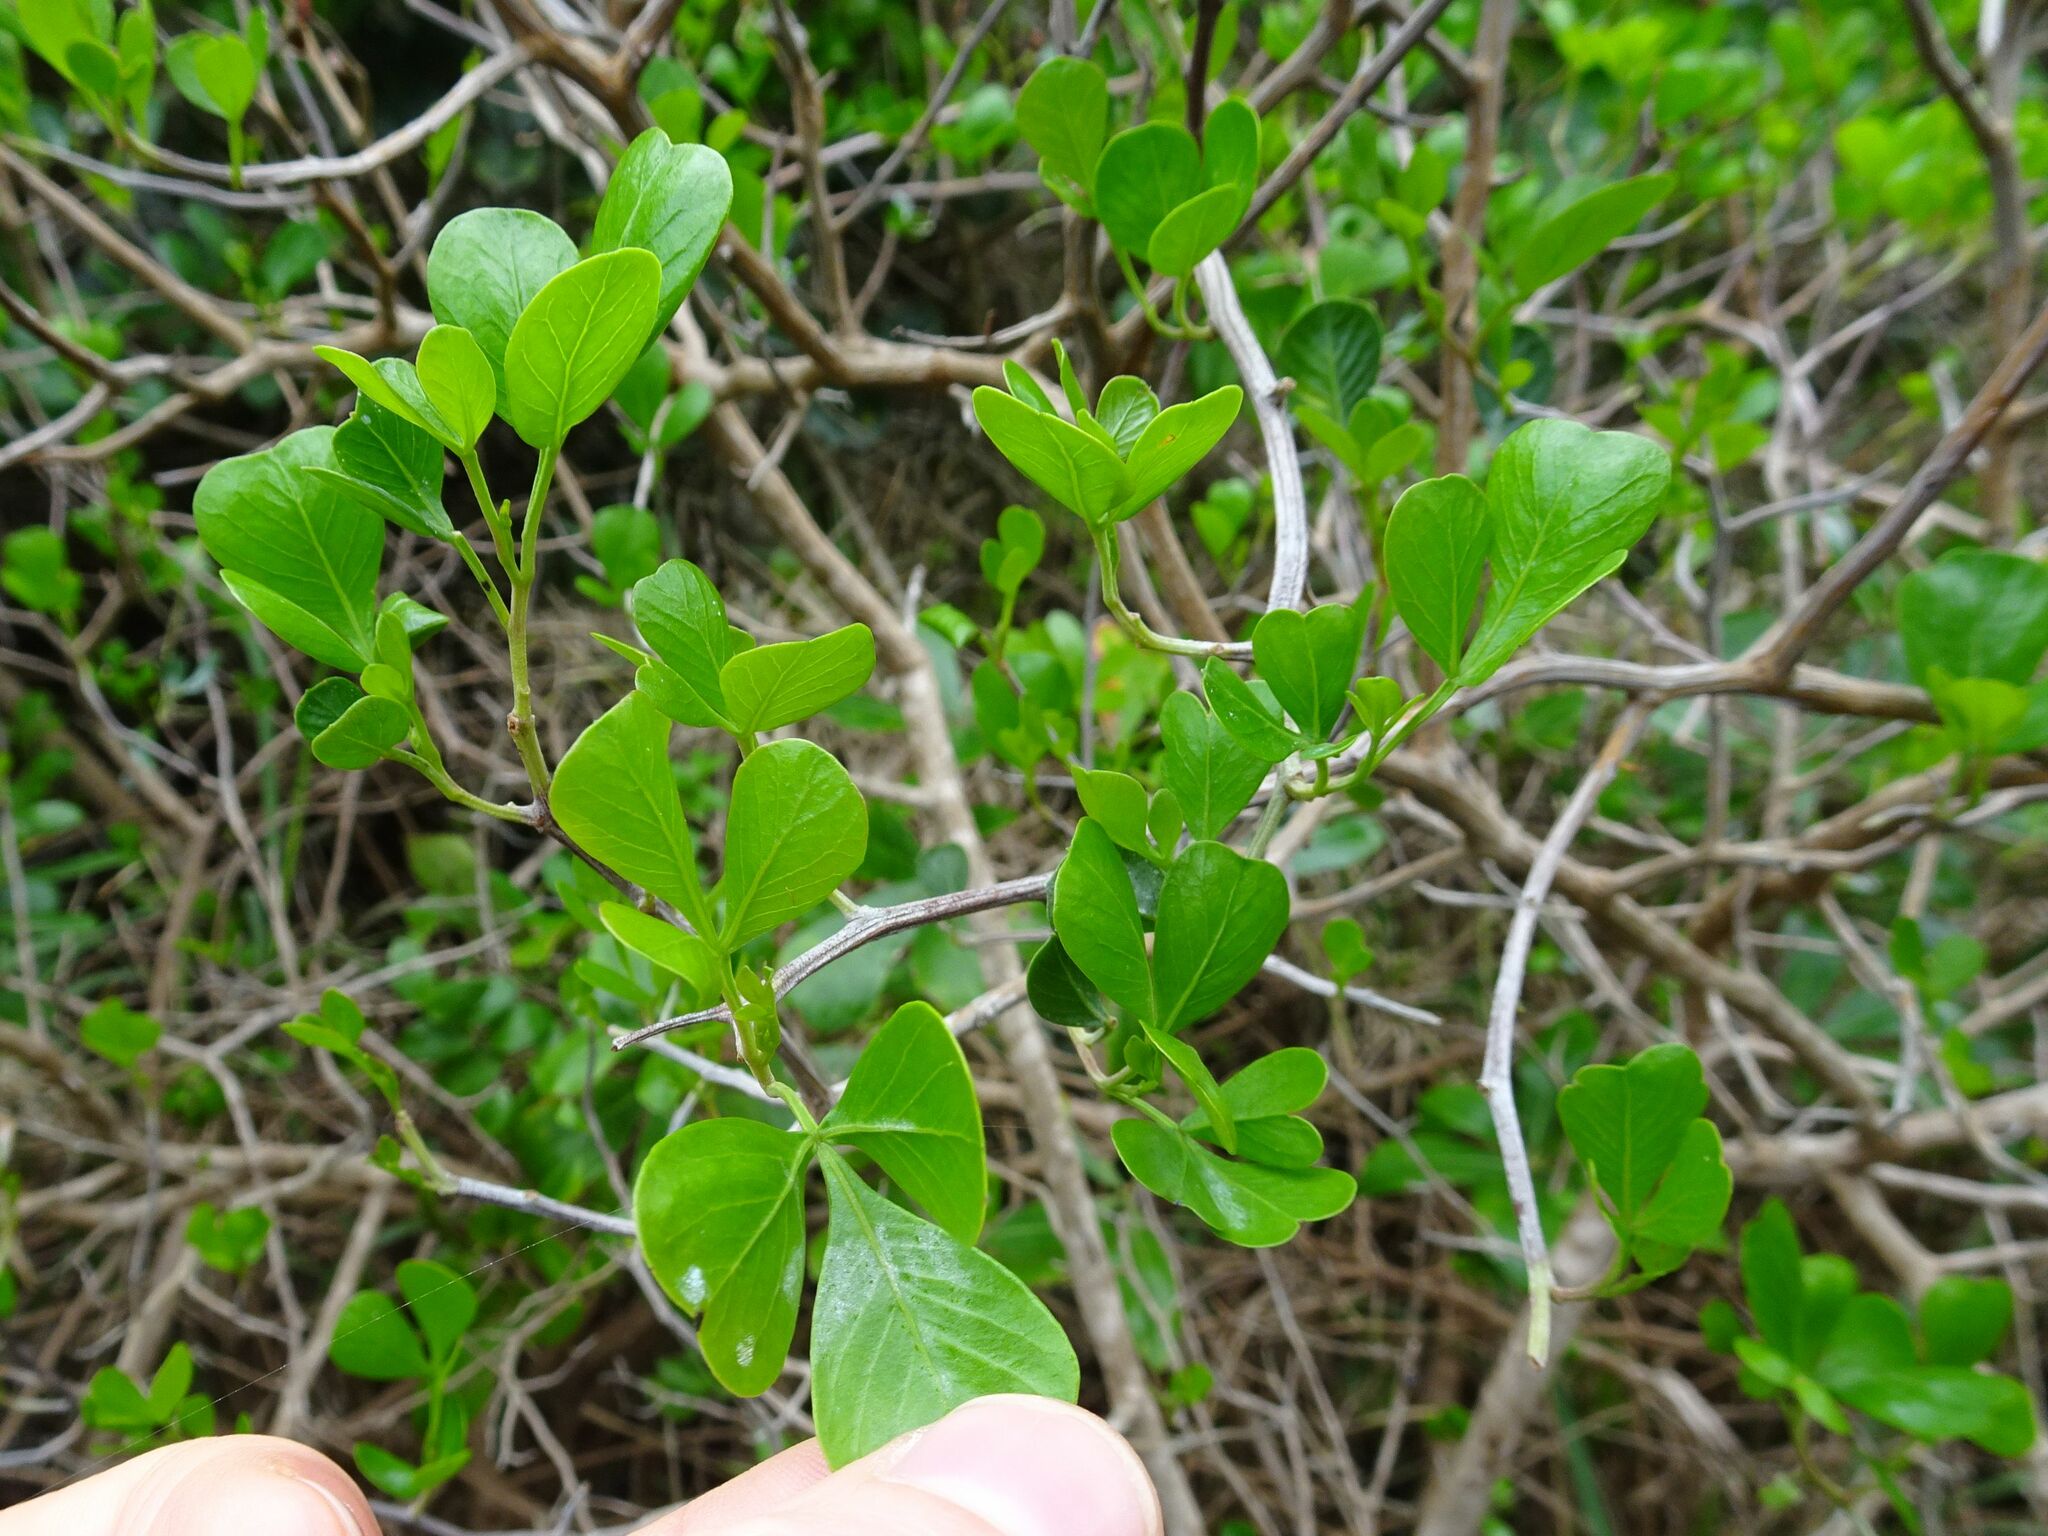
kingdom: Plantae
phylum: Tracheophyta
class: Magnoliopsida
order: Sapindales
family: Anacardiaceae
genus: Searsia
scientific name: Searsia glauca
